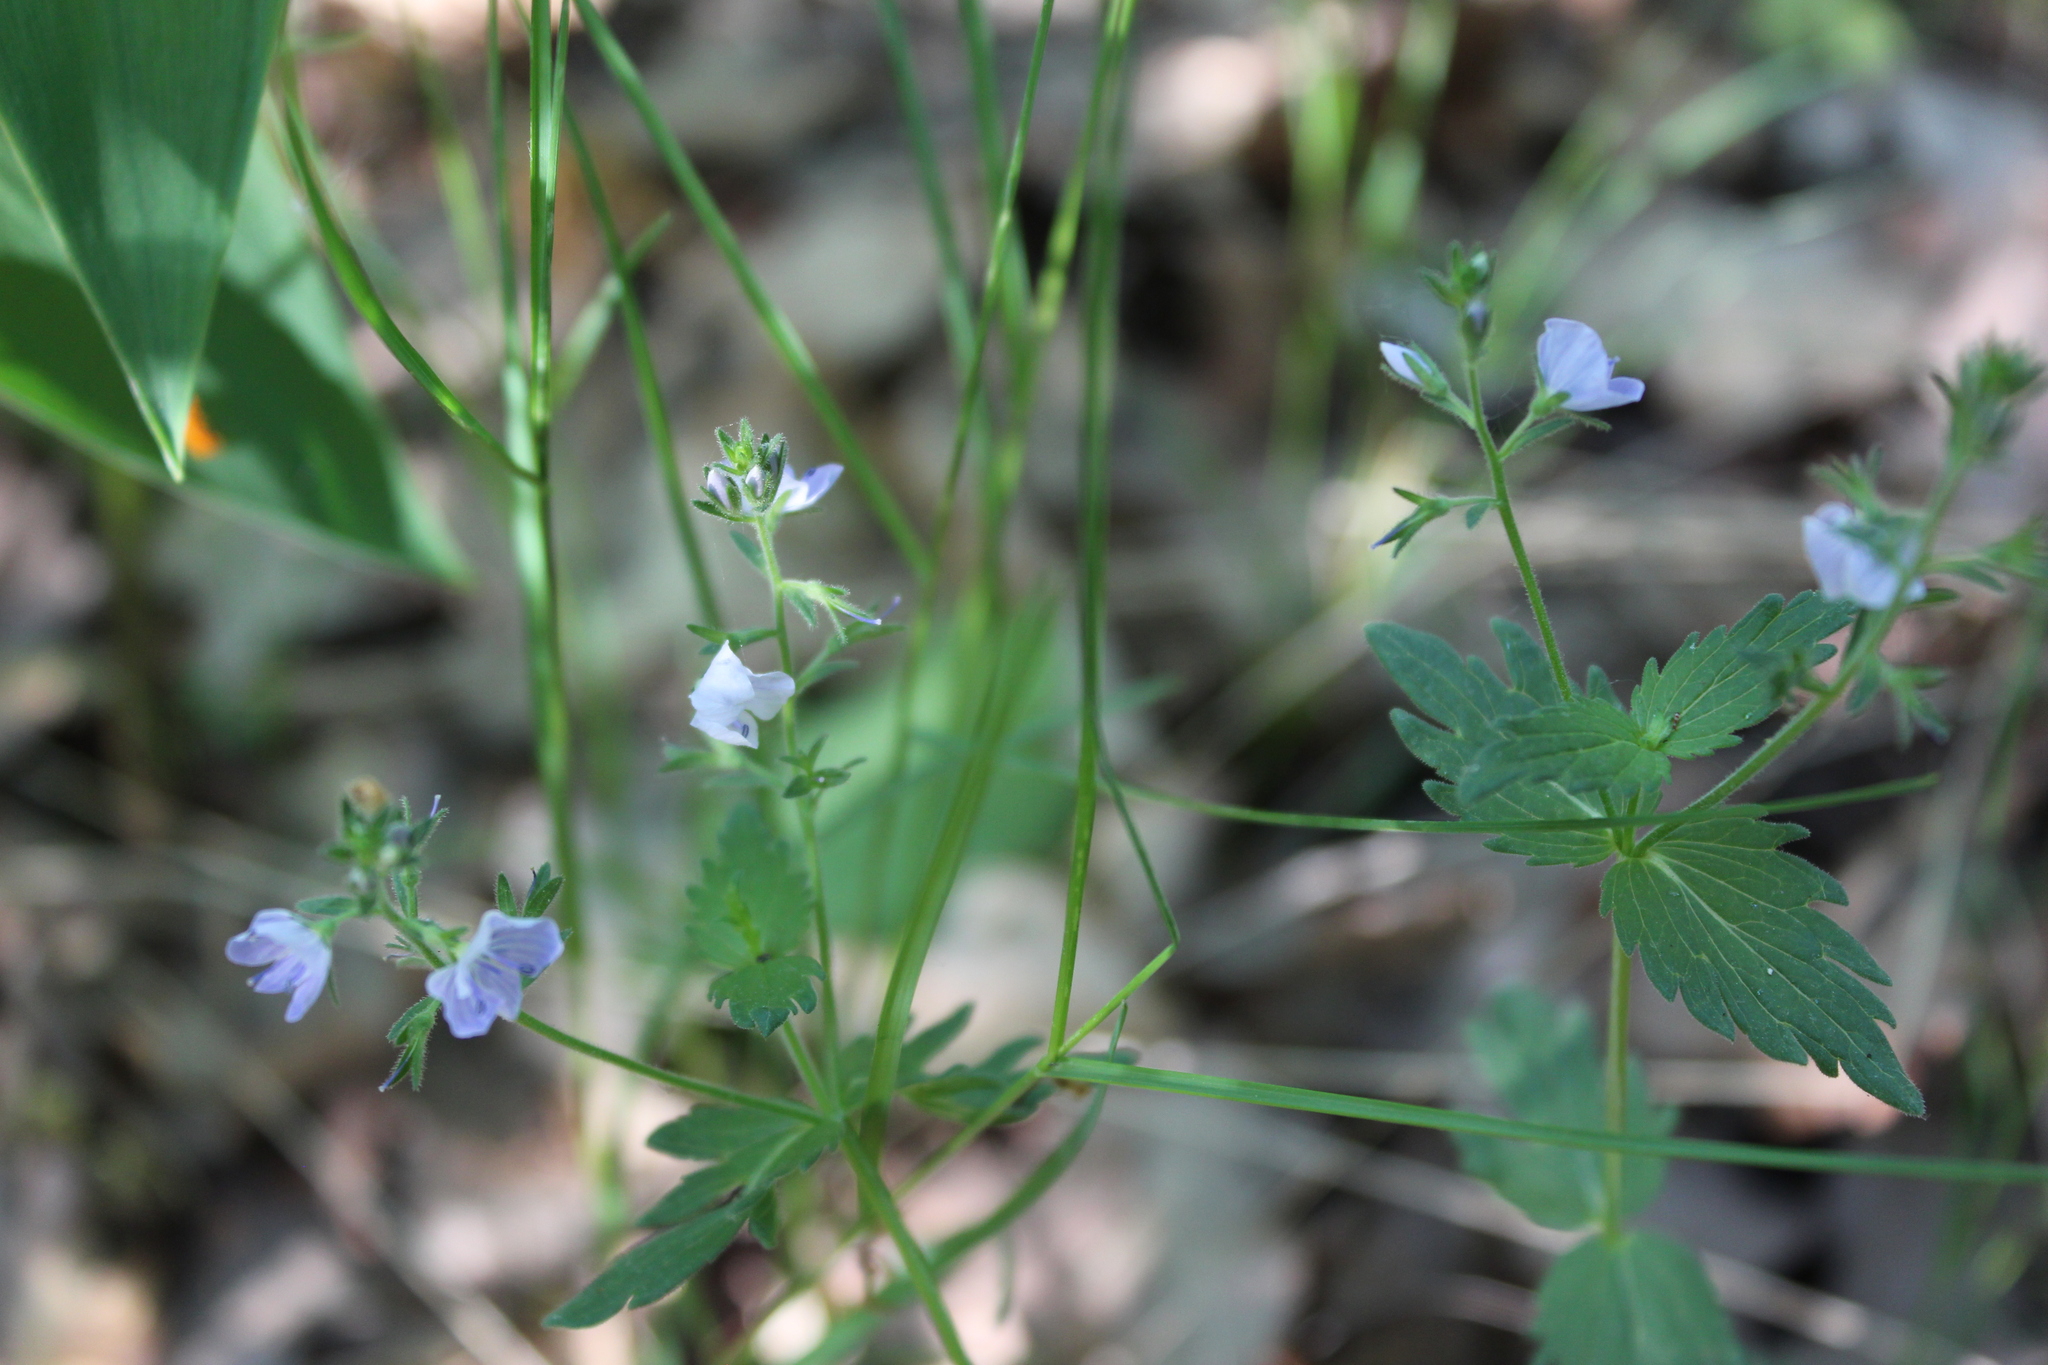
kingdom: Plantae
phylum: Tracheophyta
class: Magnoliopsida
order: Lamiales
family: Plantaginaceae
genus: Veronica
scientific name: Veronica chamaedrys
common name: Germander speedwell
